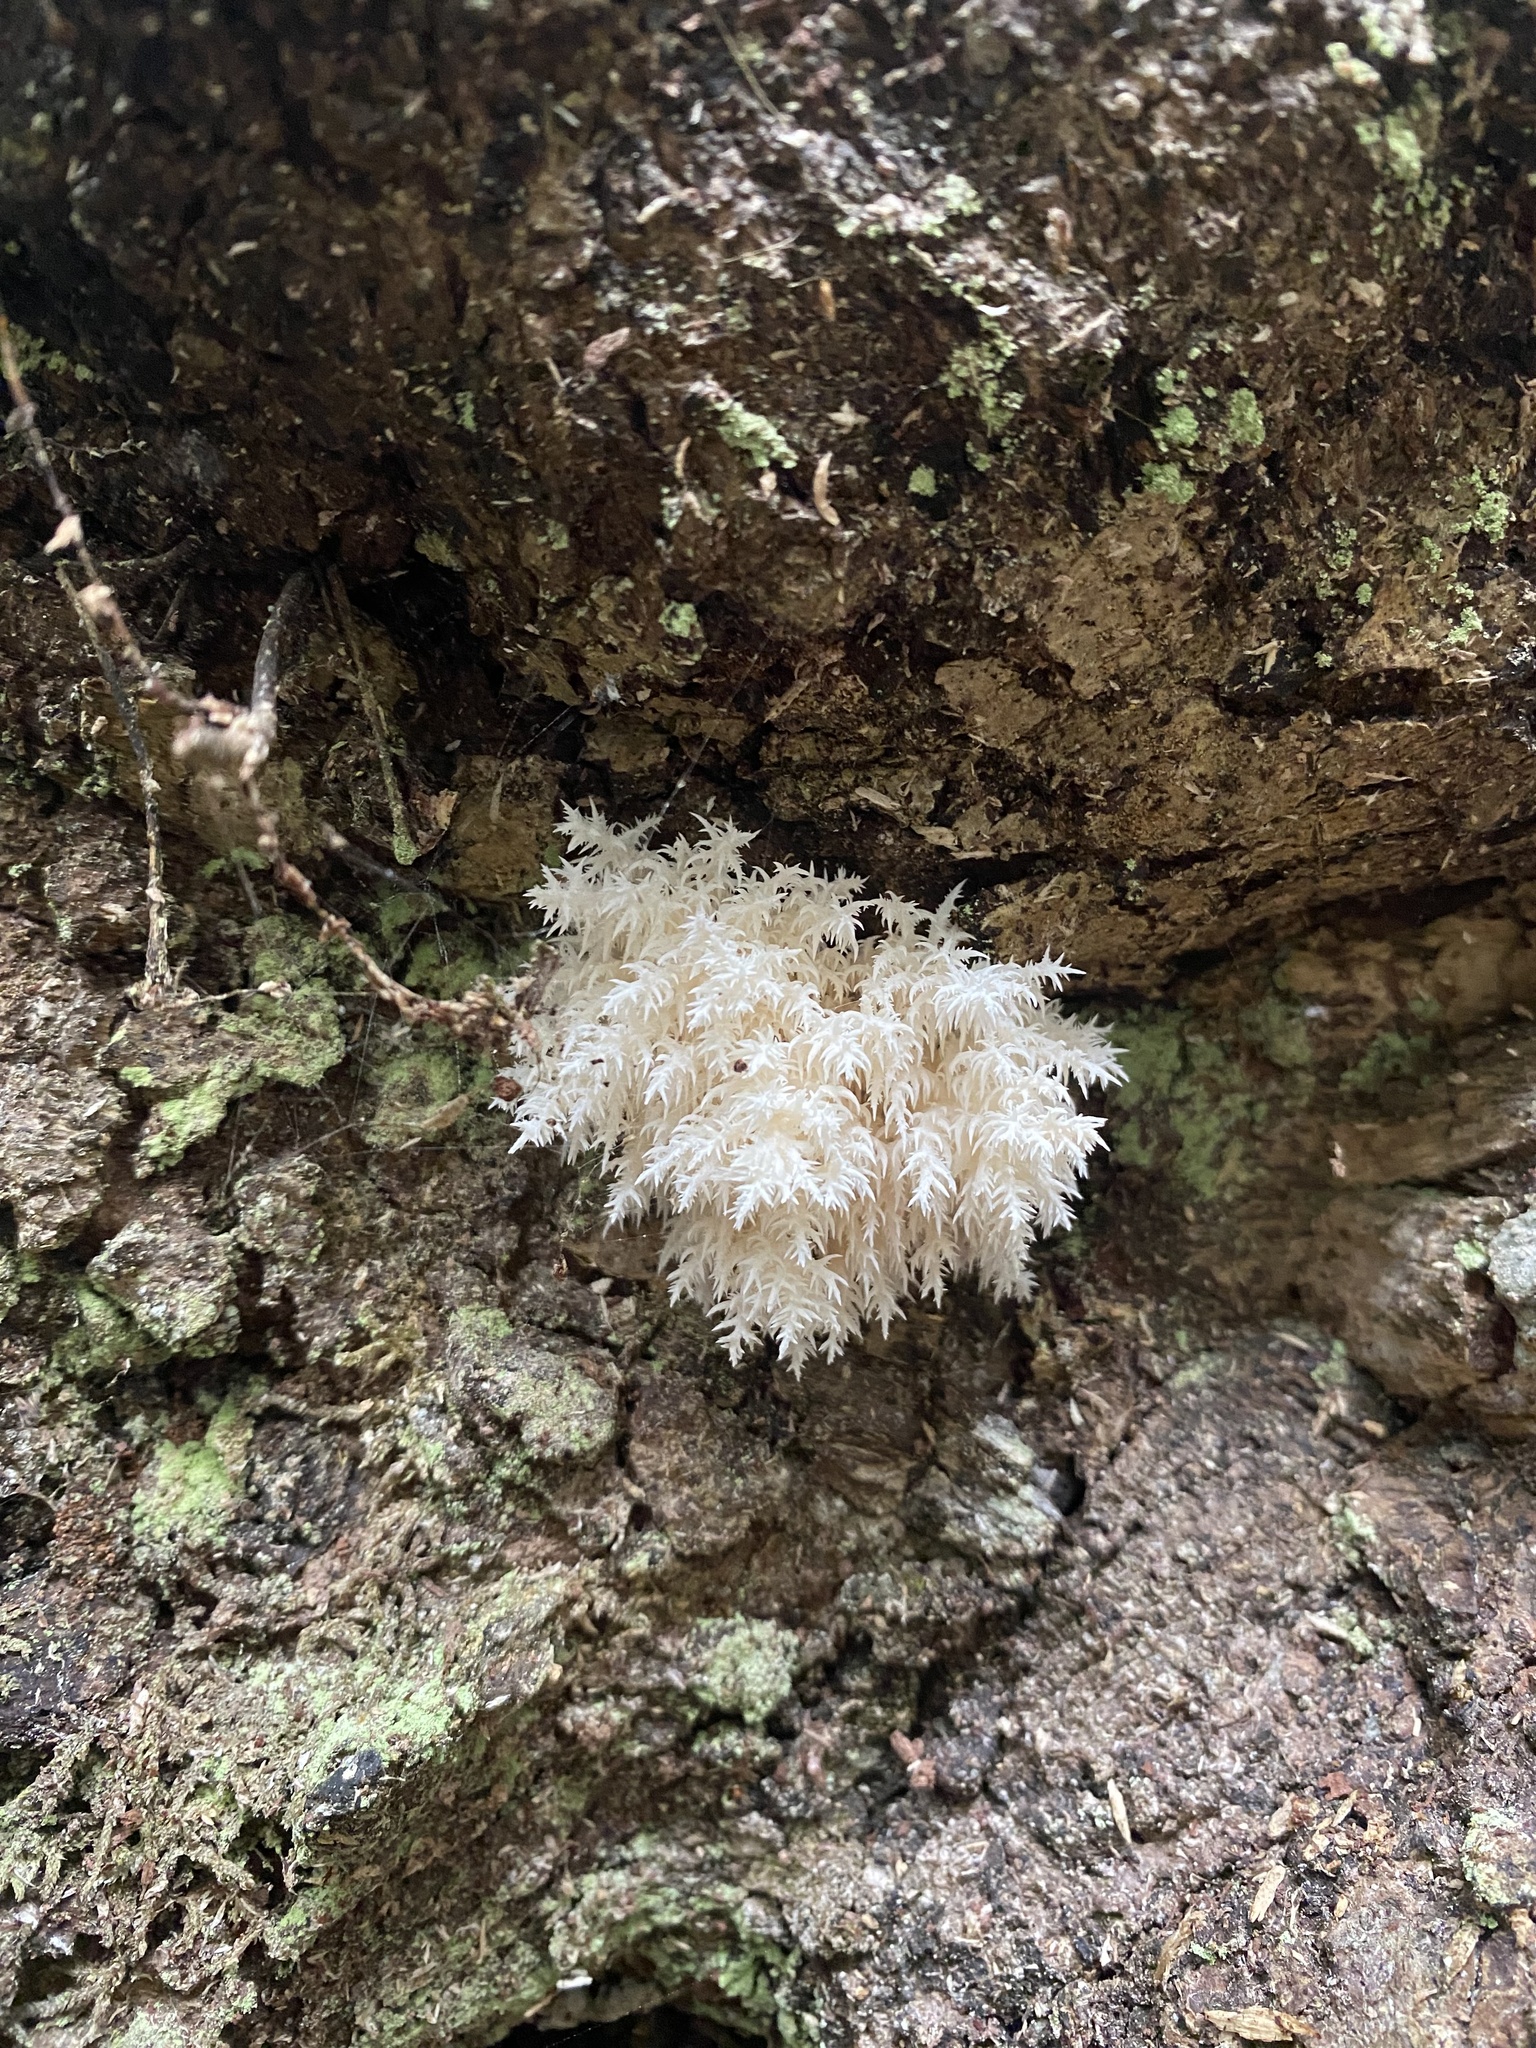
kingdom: Fungi
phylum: Basidiomycota
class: Agaricomycetes
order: Russulales
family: Hericiaceae
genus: Hericium
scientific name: Hericium novae-zealandiae
